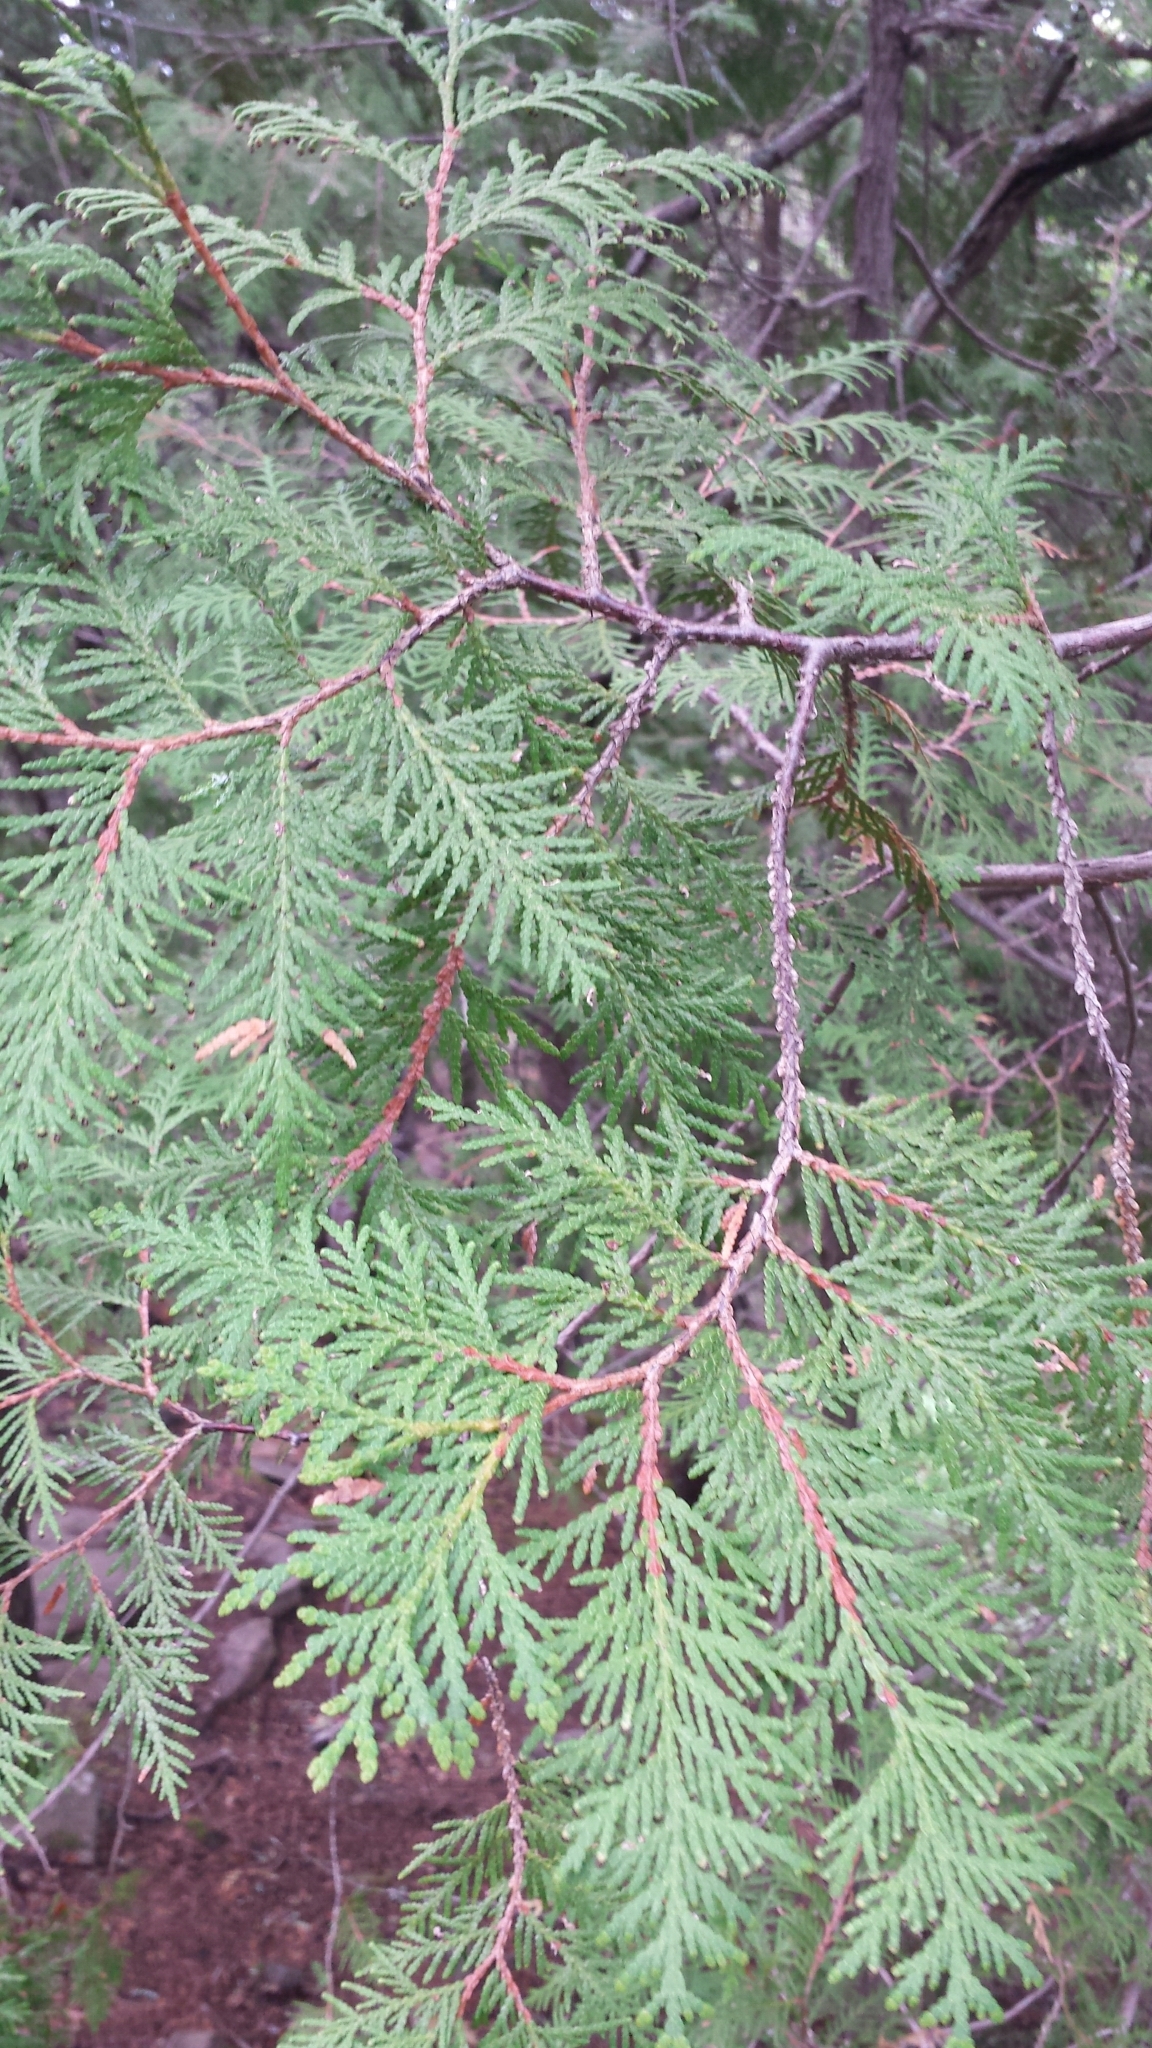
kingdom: Plantae
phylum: Tracheophyta
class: Pinopsida
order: Pinales
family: Cupressaceae
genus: Thuja
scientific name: Thuja occidentalis
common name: Northern white-cedar
